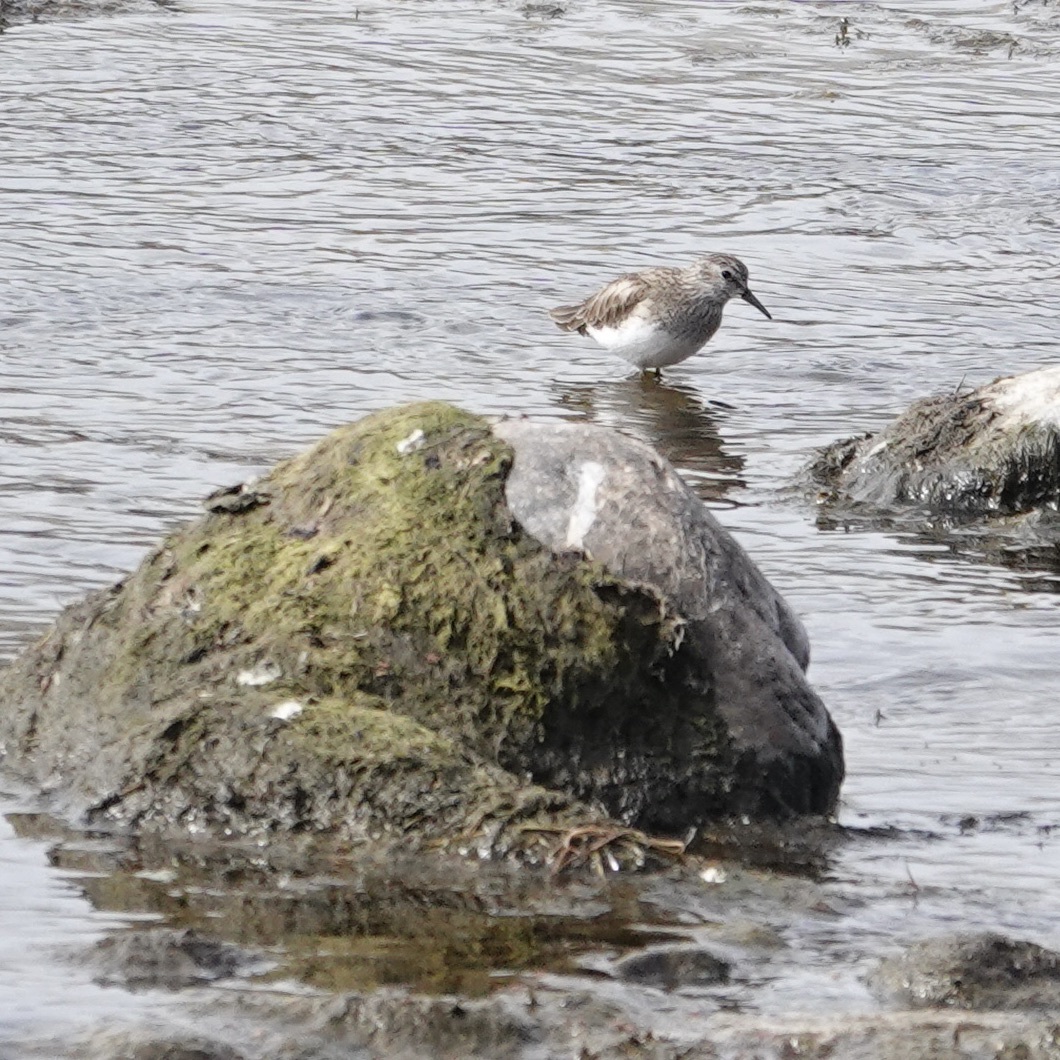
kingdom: Animalia
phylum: Chordata
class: Aves
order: Charadriiformes
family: Scolopacidae
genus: Calidris
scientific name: Calidris minutilla
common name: Least sandpiper
